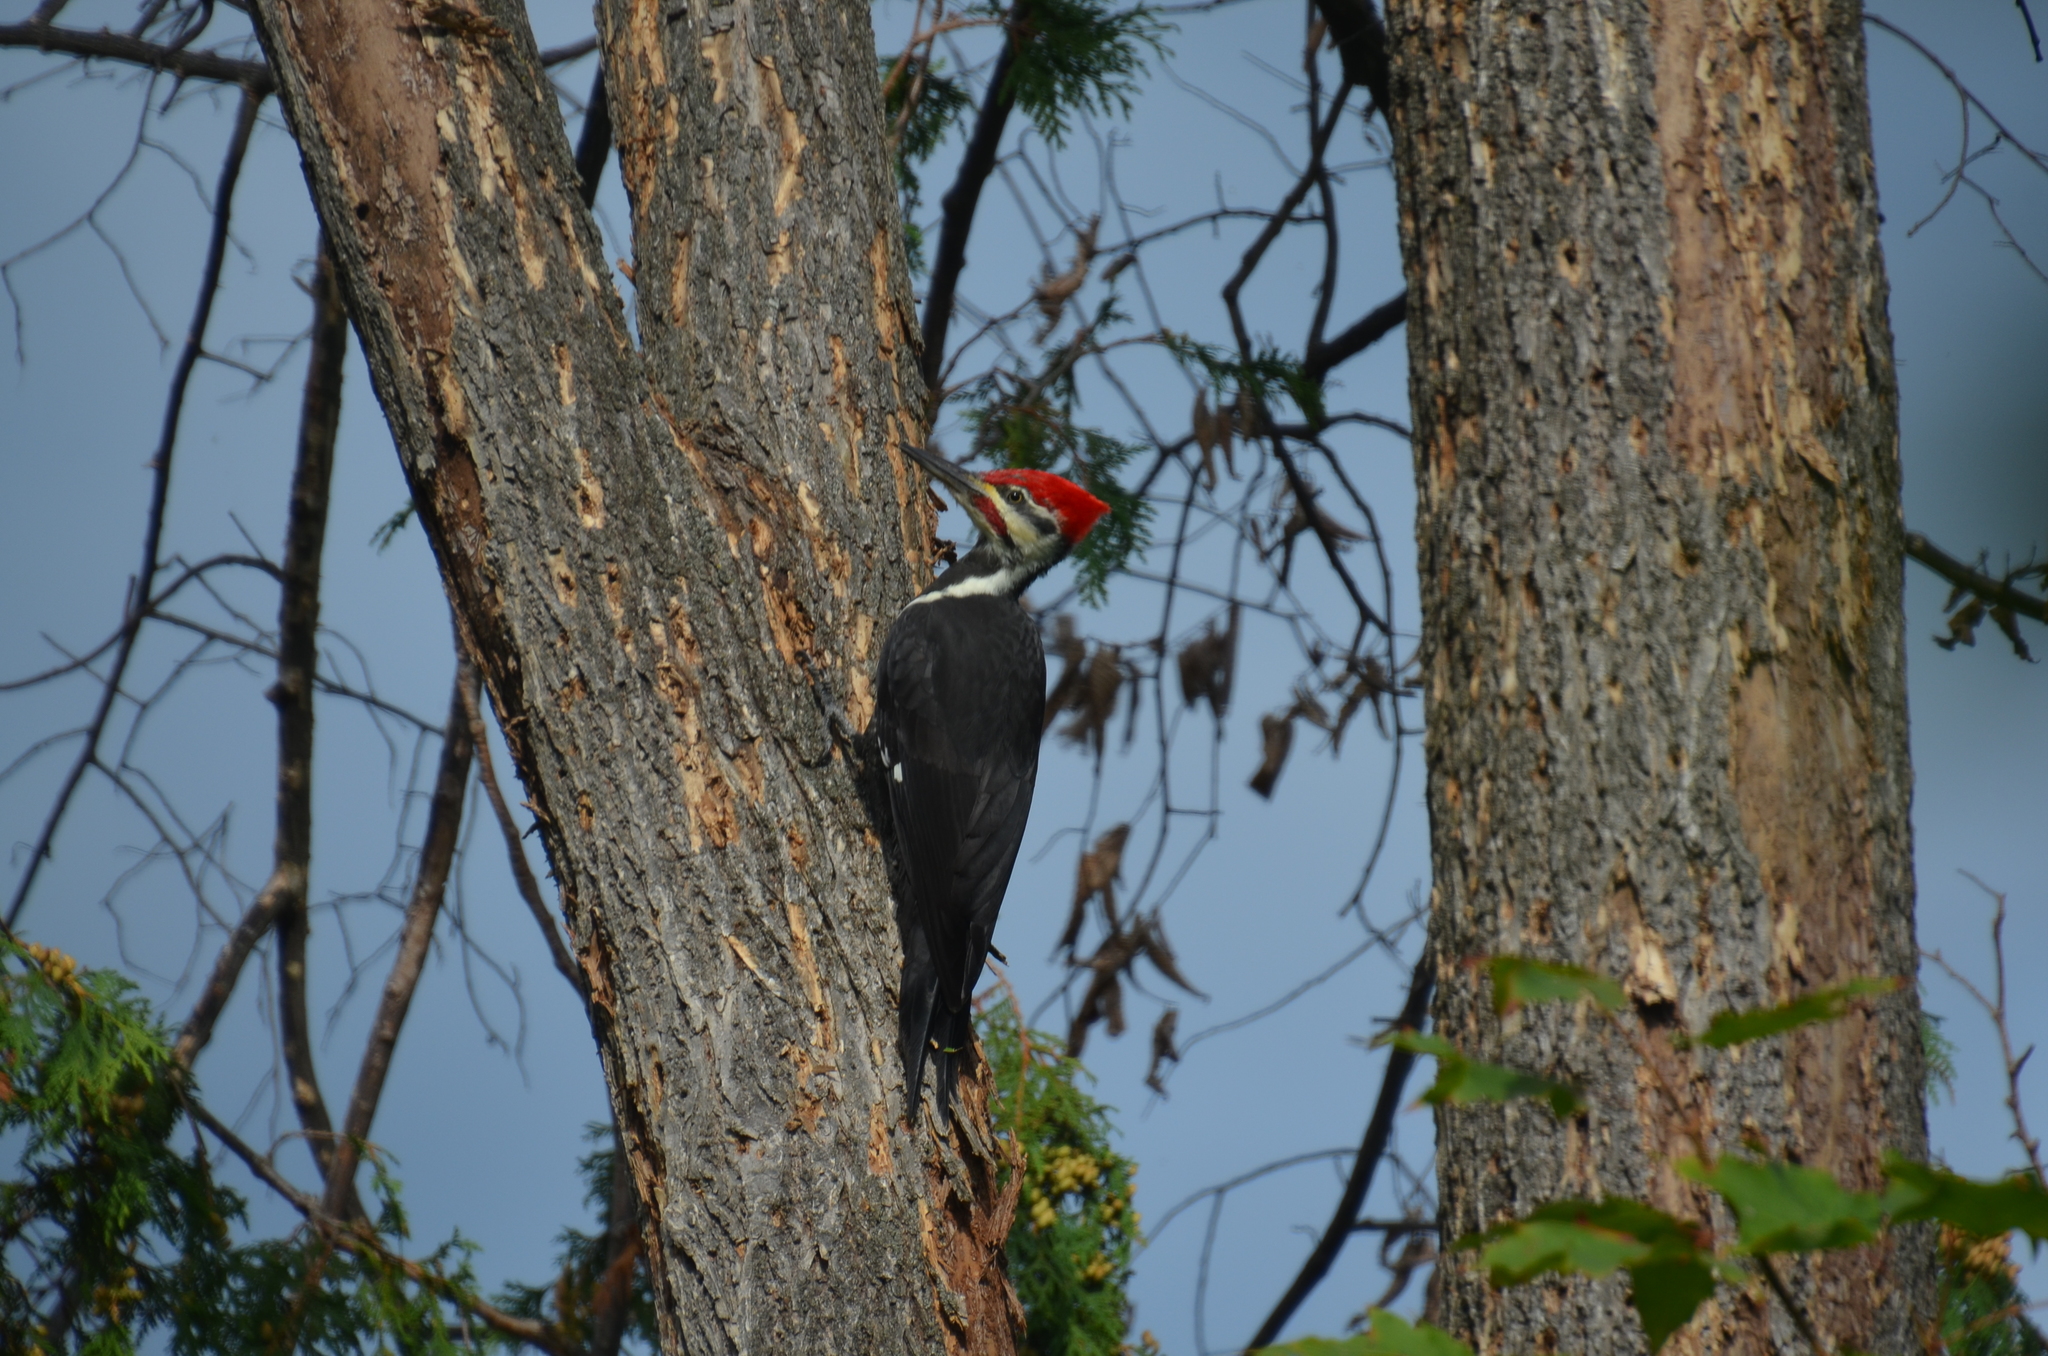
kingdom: Animalia
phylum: Chordata
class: Aves
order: Piciformes
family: Picidae
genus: Dryocopus
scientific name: Dryocopus pileatus
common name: Pileated woodpecker
